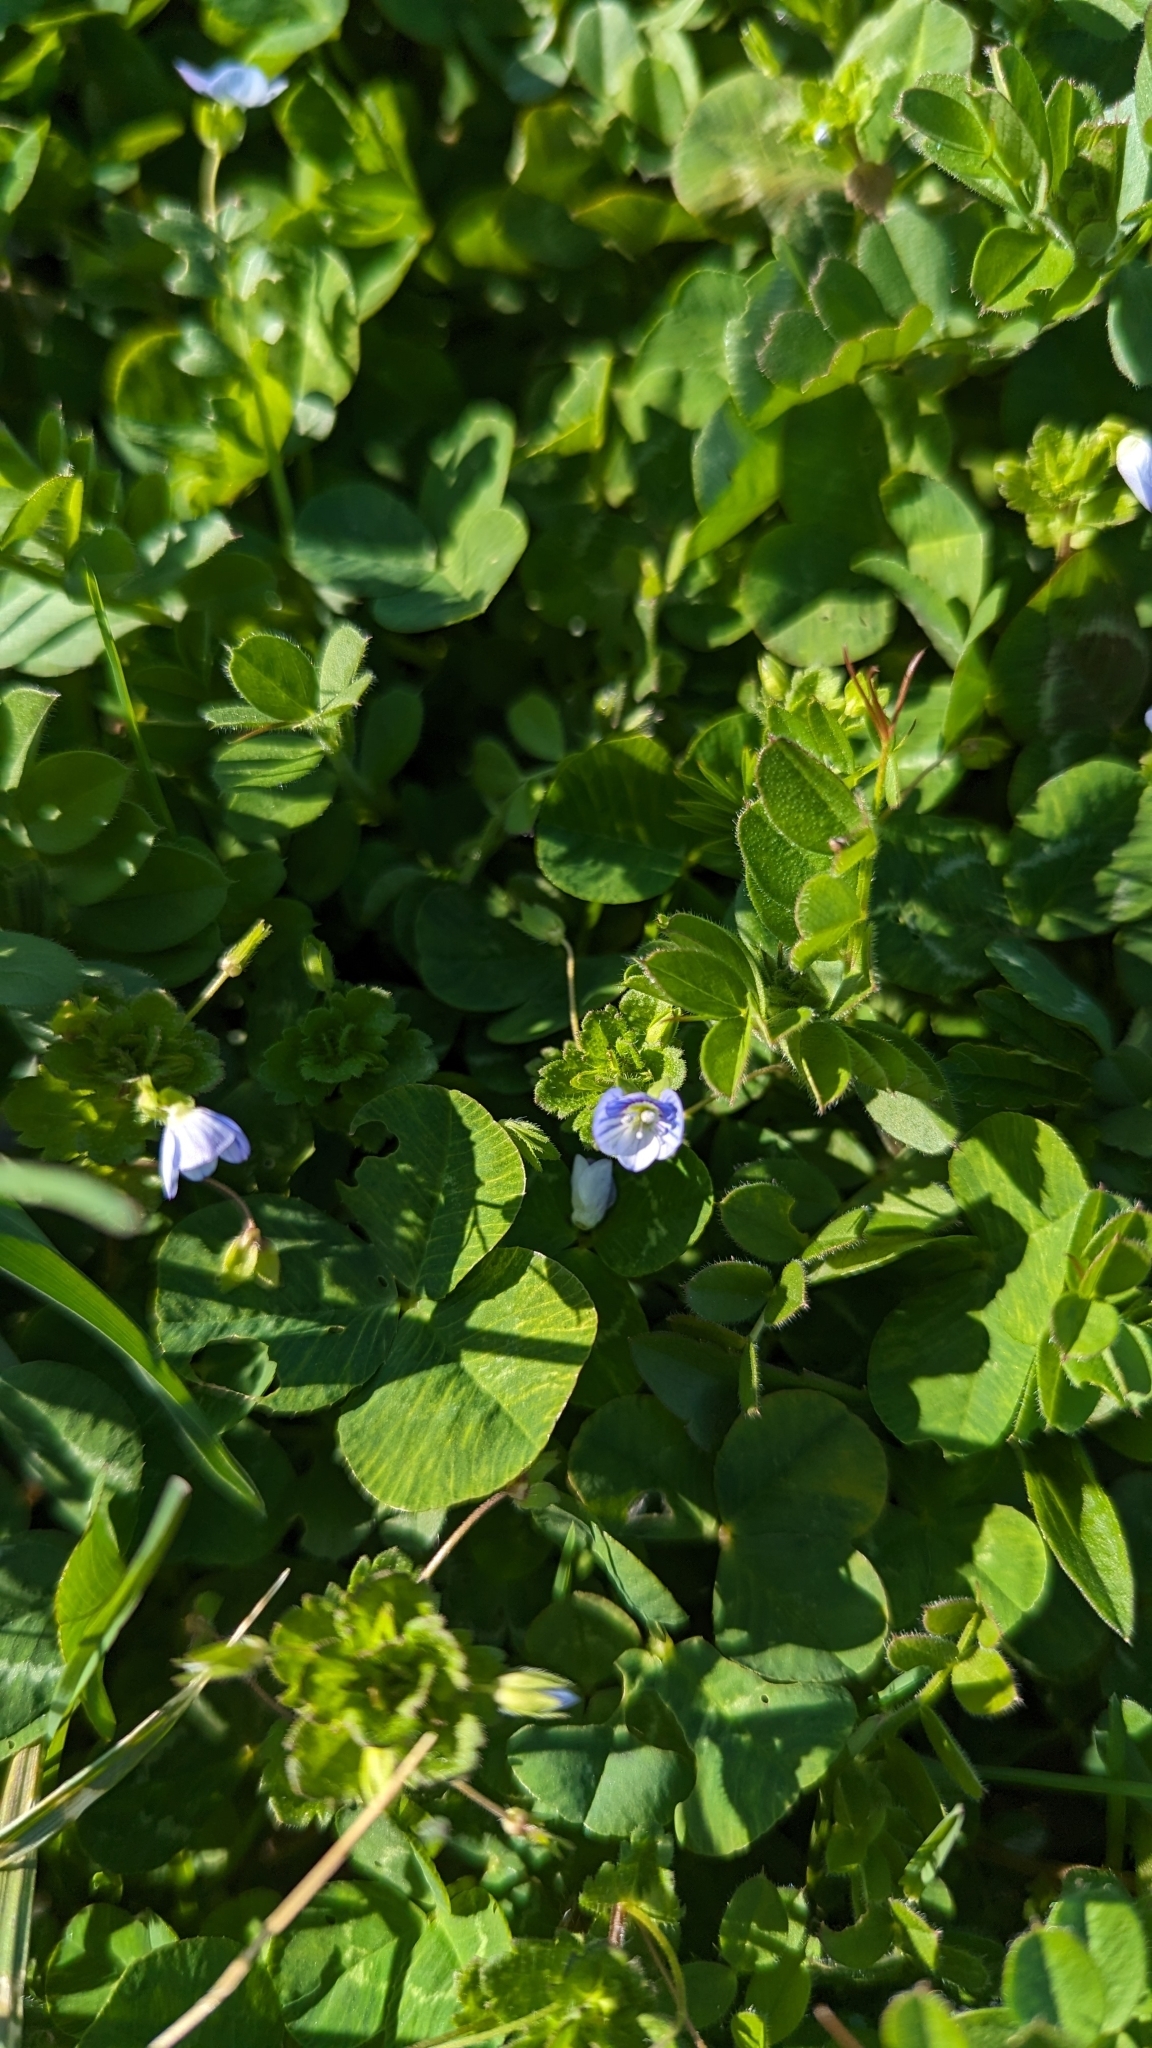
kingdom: Plantae
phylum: Tracheophyta
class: Magnoliopsida
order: Lamiales
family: Plantaginaceae
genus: Veronica
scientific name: Veronica persica
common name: Common field-speedwell
